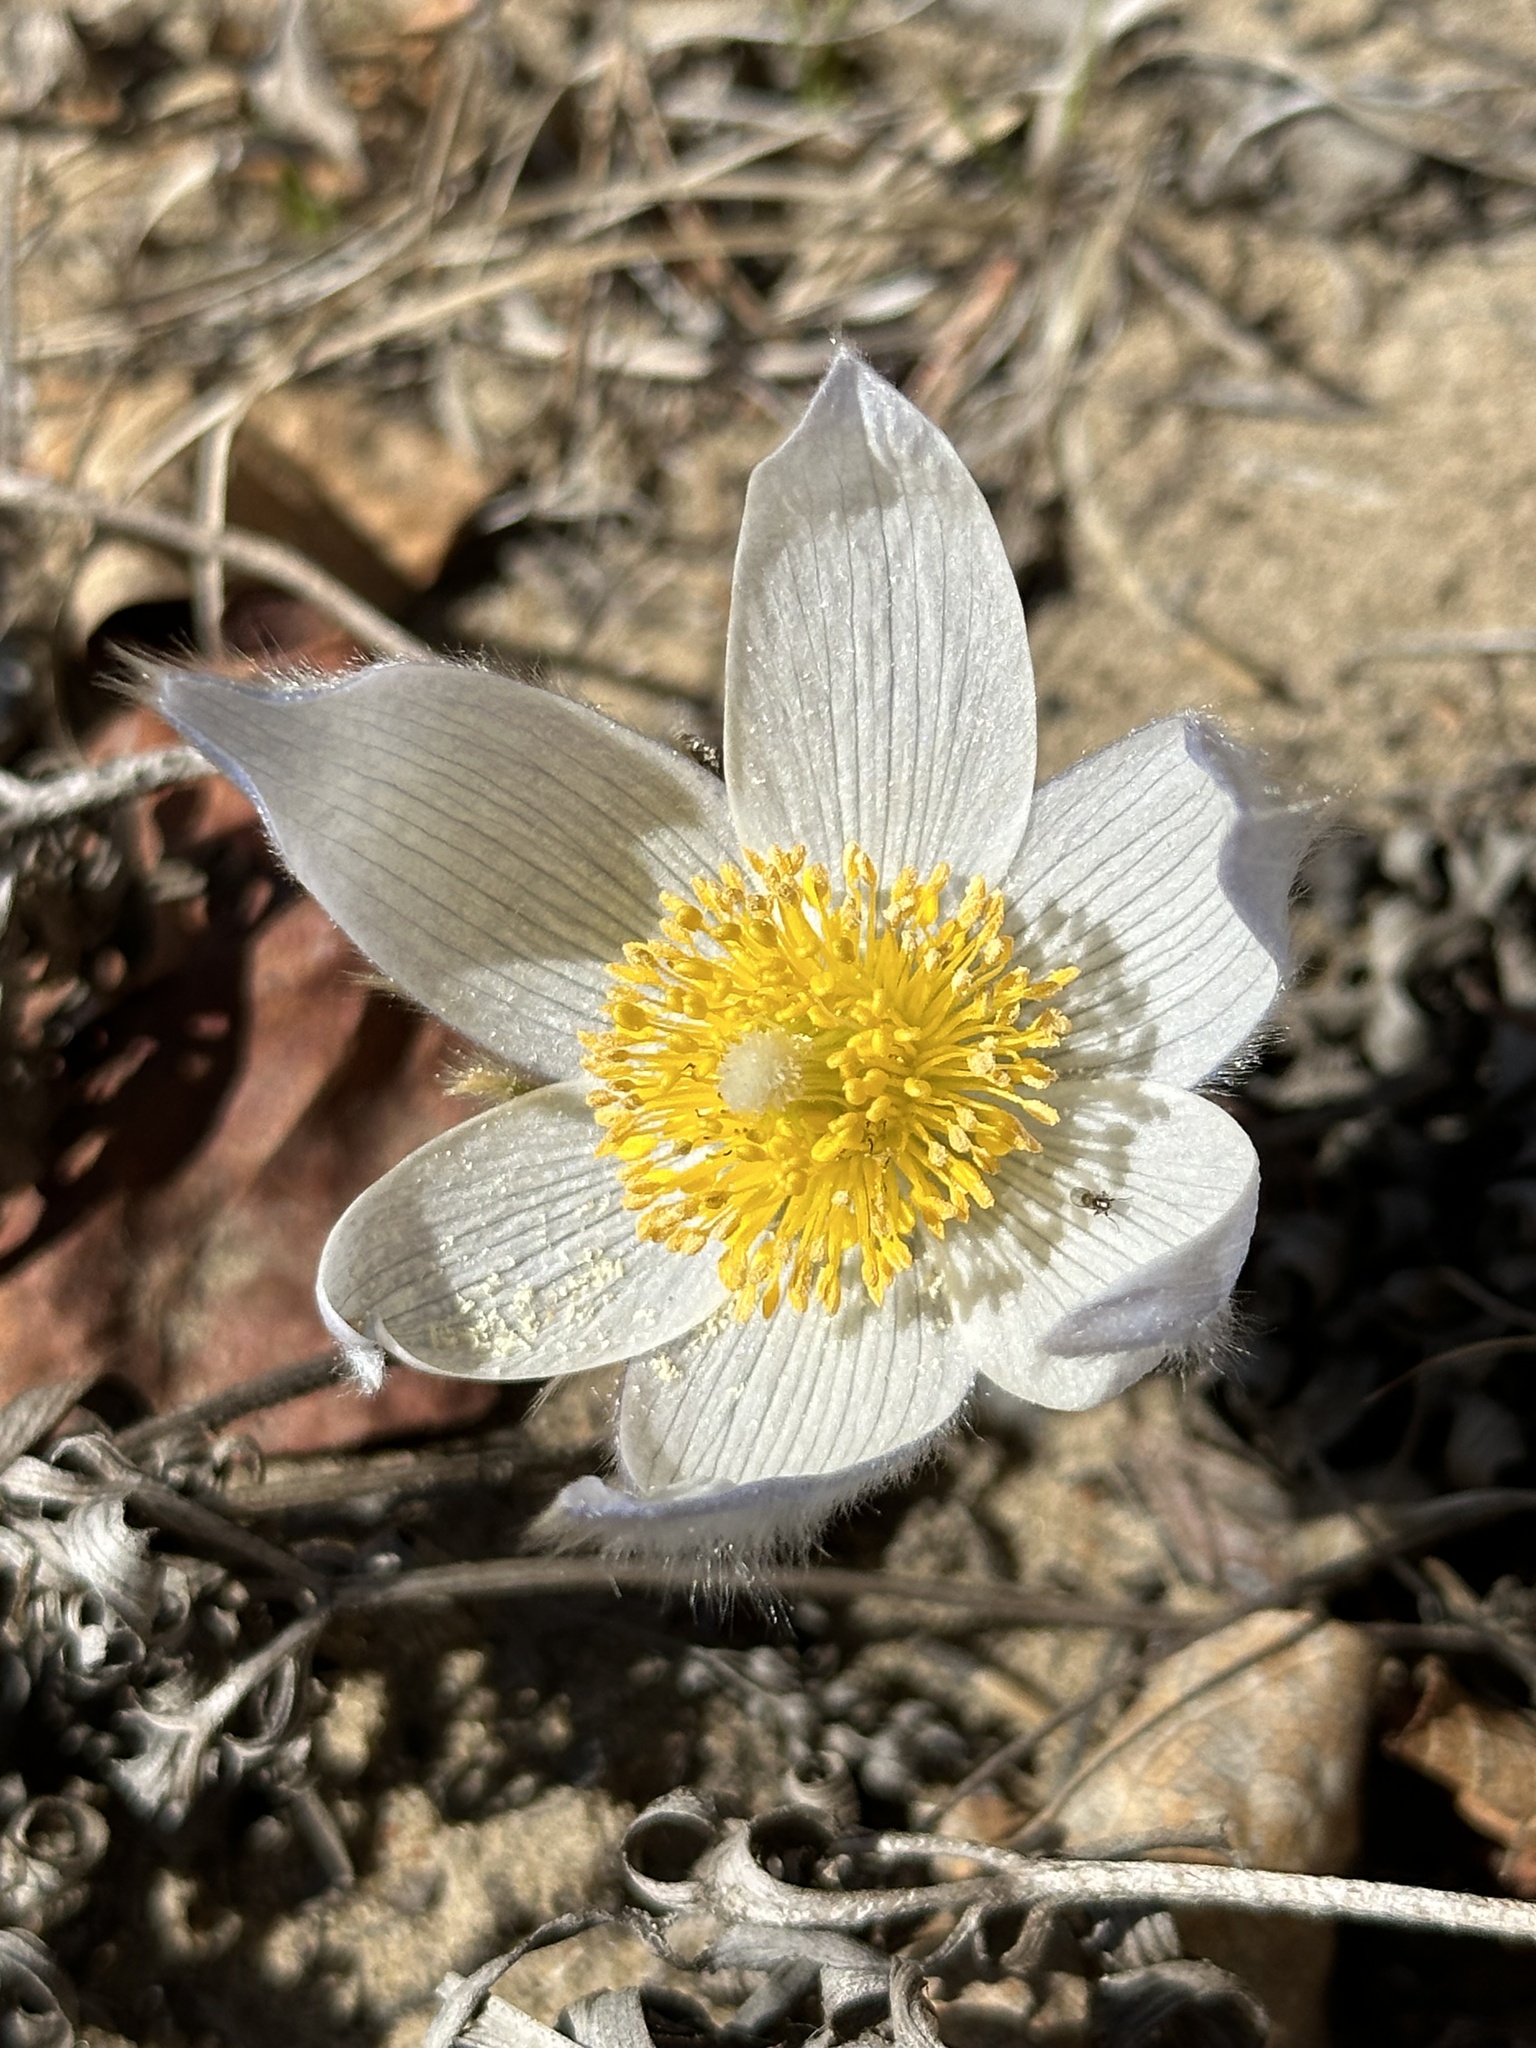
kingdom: Plantae
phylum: Tracheophyta
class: Magnoliopsida
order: Ranunculales
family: Ranunculaceae
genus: Pulsatilla
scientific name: Pulsatilla nuttalliana
